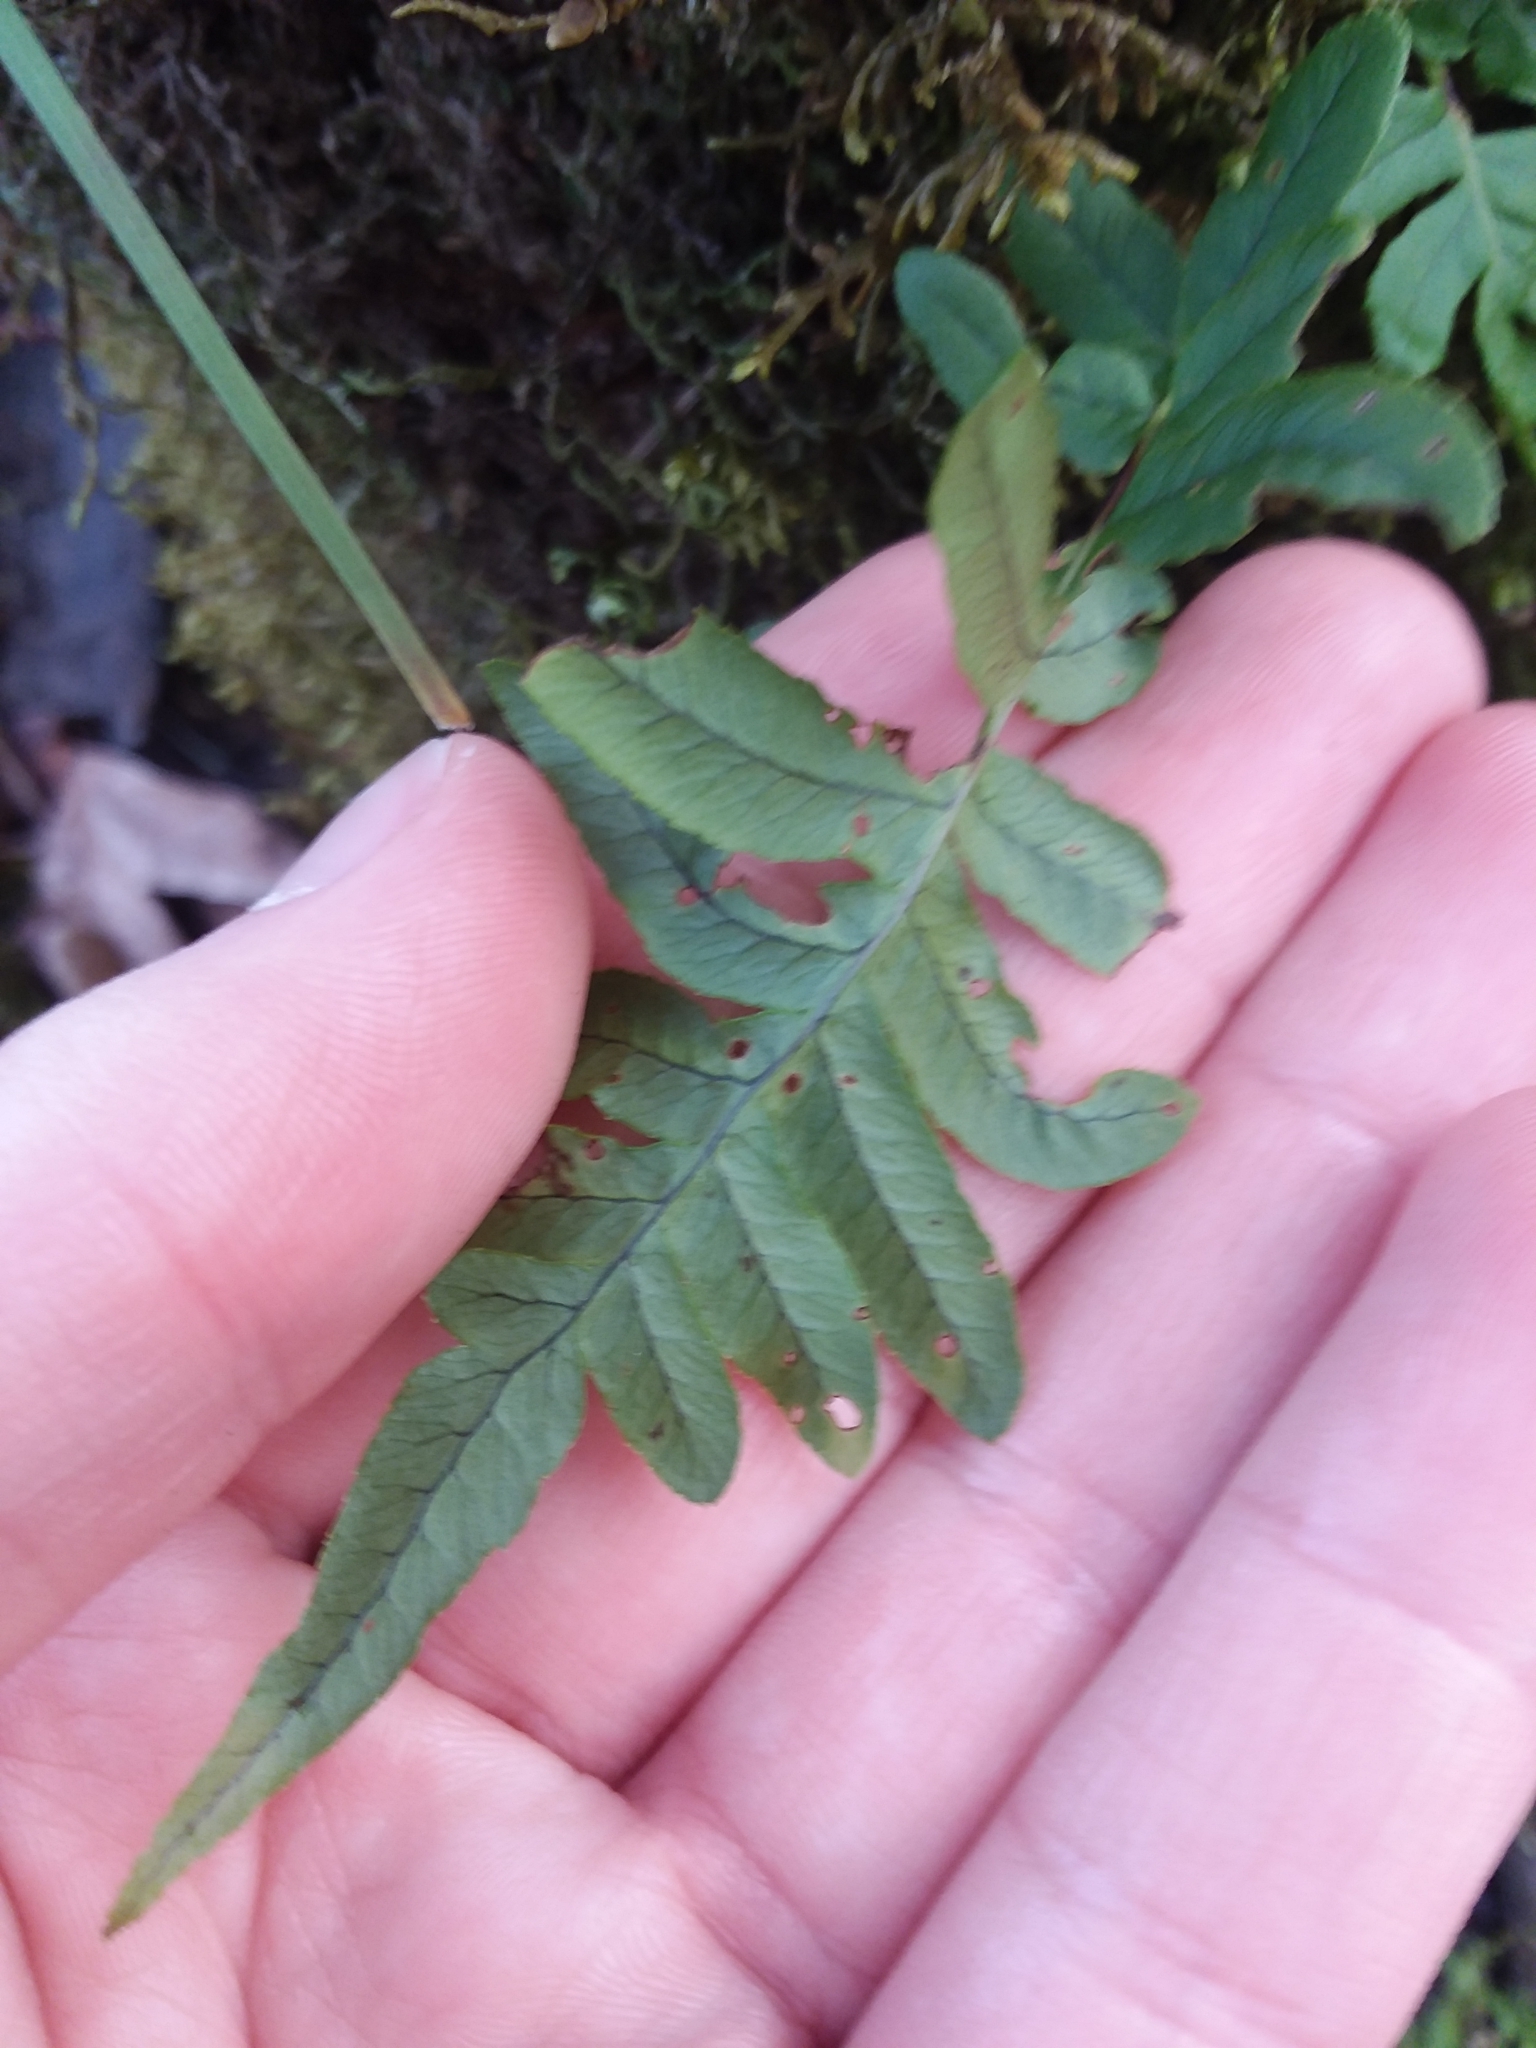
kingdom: Plantae
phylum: Tracheophyta
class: Polypodiopsida
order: Polypodiales
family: Polypodiaceae
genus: Polypodium
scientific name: Polypodium glycyrrhiza
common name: Licorice fern
